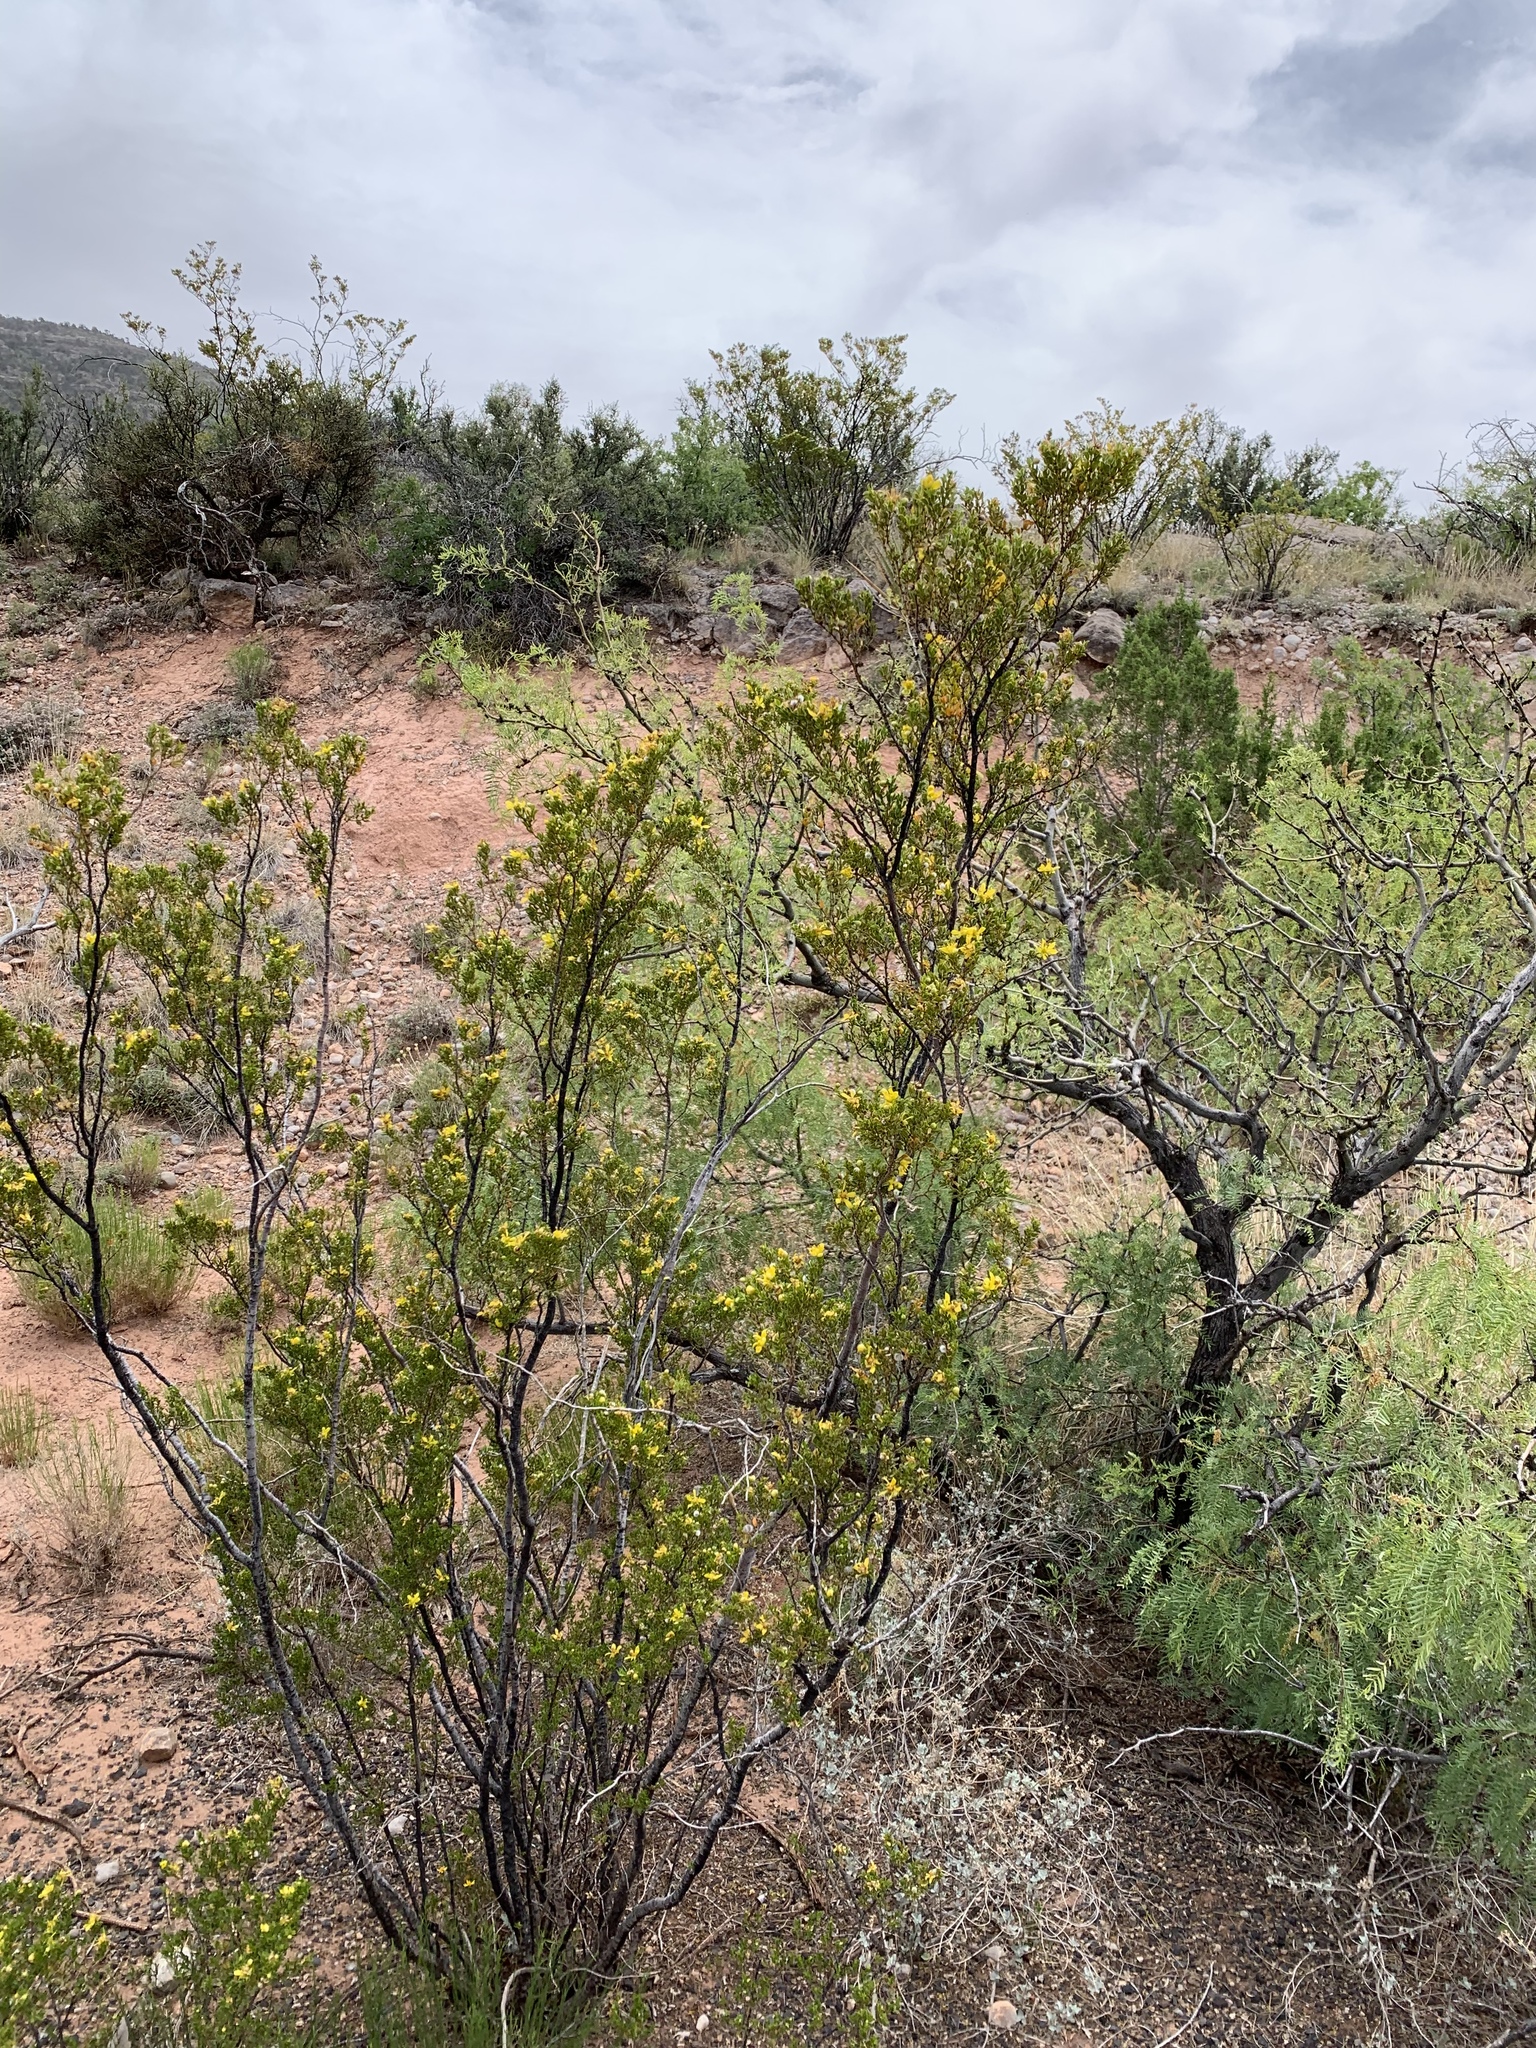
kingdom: Plantae
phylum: Tracheophyta
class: Magnoliopsida
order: Zygophyllales
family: Zygophyllaceae
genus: Larrea
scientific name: Larrea tridentata
